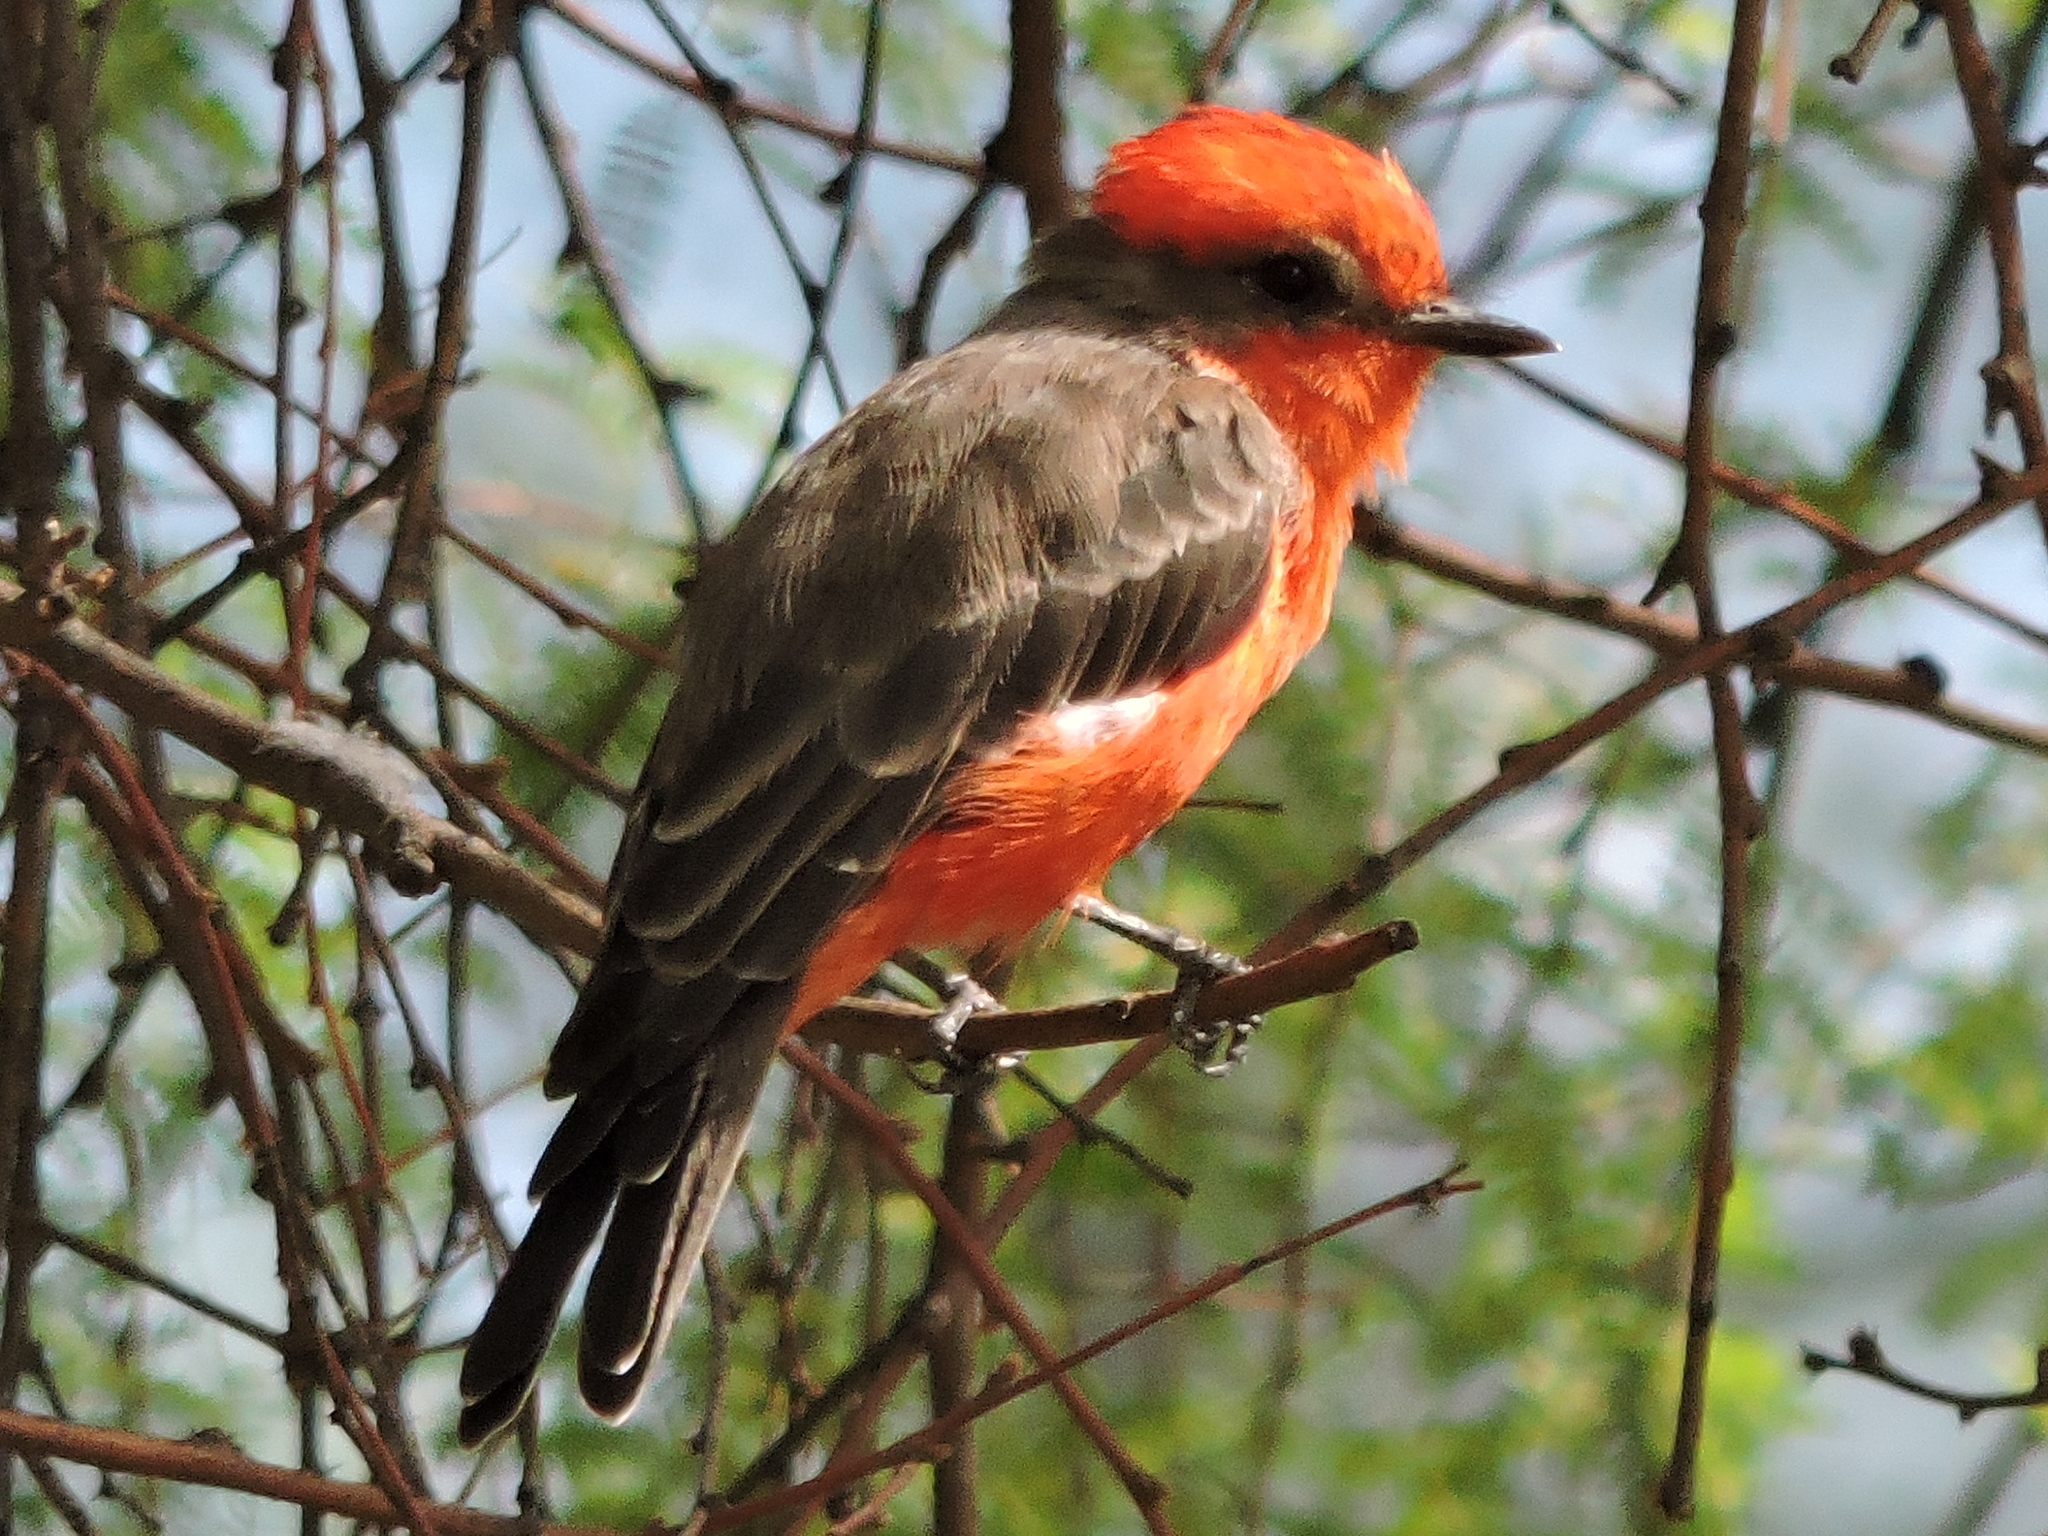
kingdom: Animalia
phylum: Chordata
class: Aves
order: Passeriformes
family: Tyrannidae
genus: Pyrocephalus
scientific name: Pyrocephalus rubinus
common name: Vermilion flycatcher
